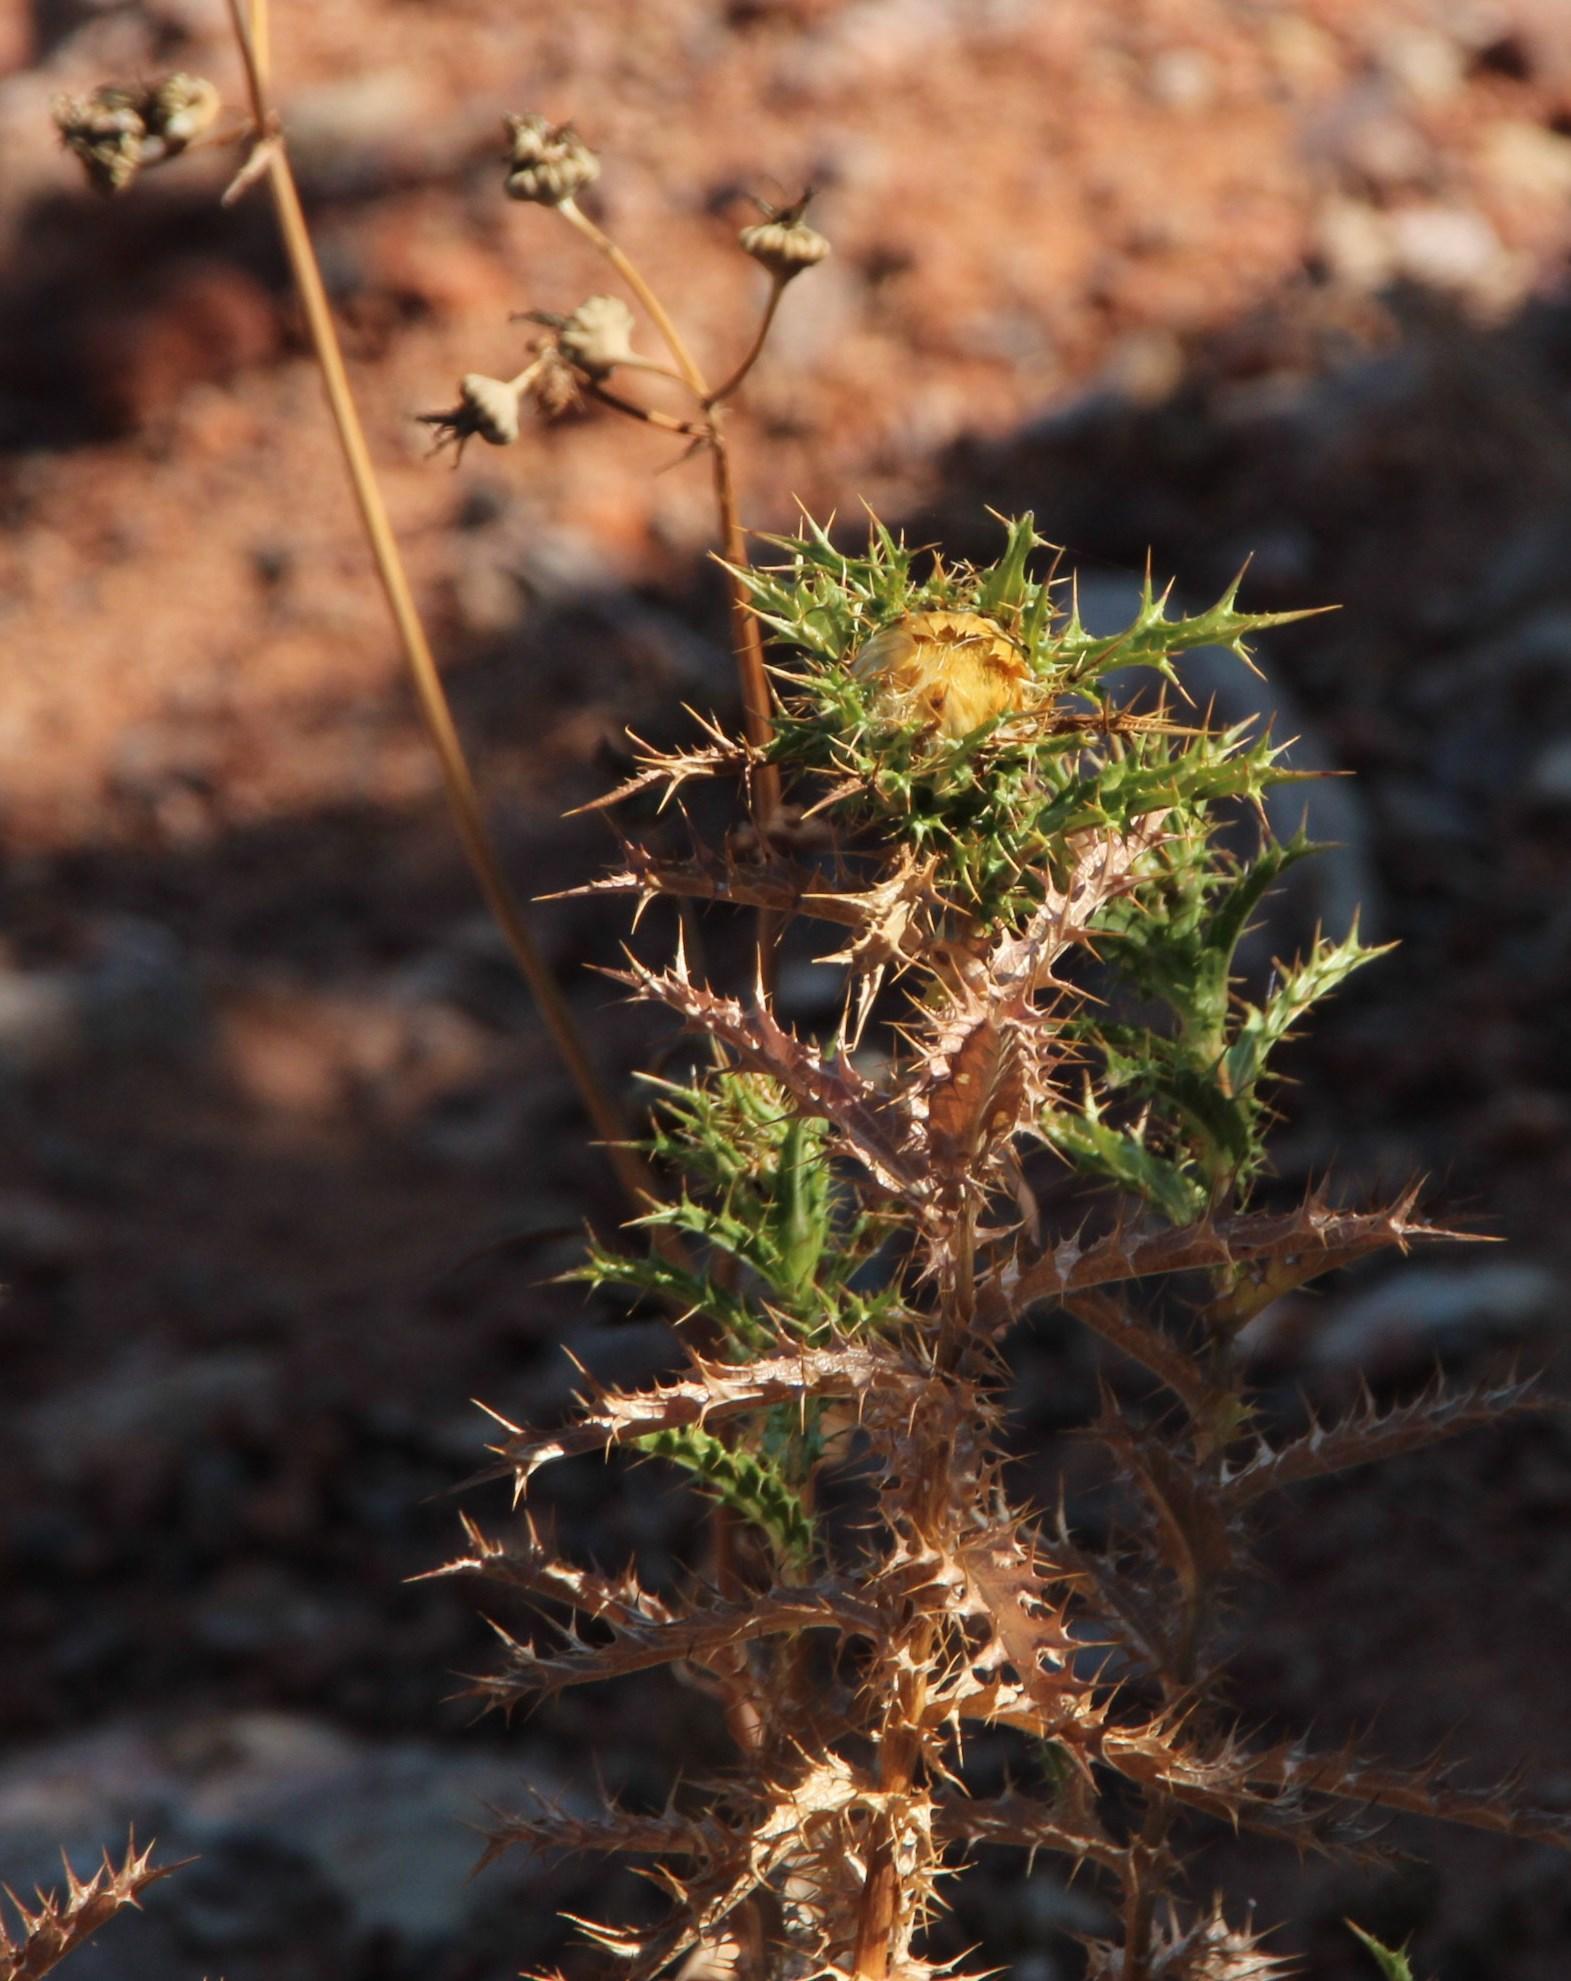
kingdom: Plantae
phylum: Tracheophyta
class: Magnoliopsida
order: Asterales
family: Asteraceae
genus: Carlina
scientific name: Carlina hispanica
